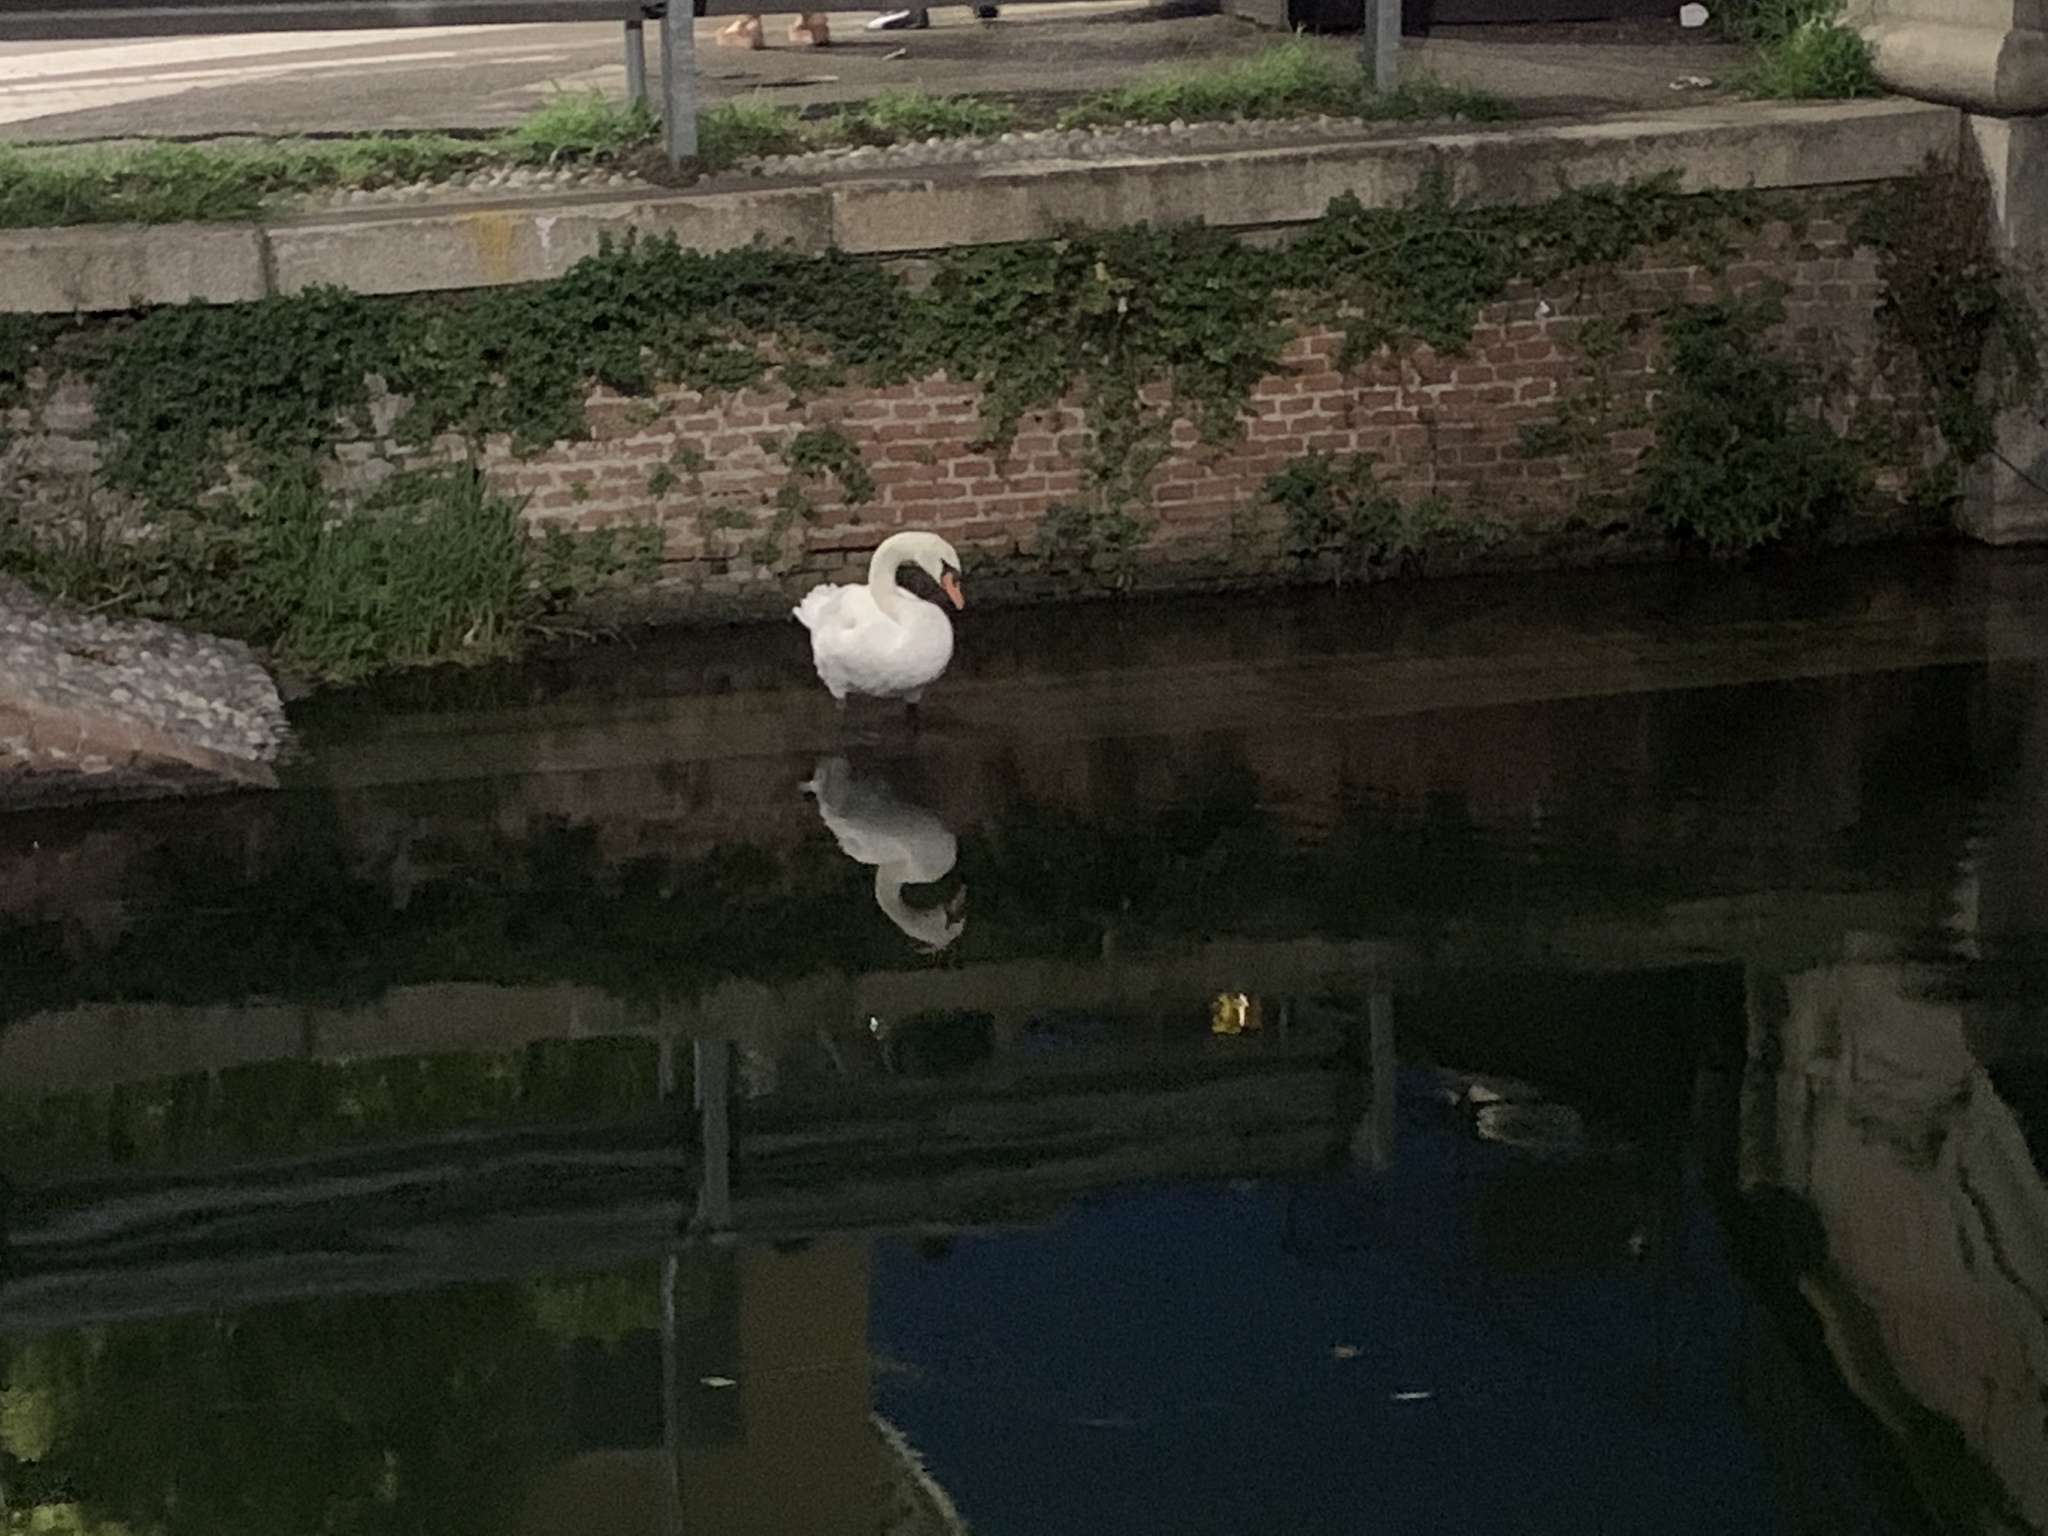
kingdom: Animalia
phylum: Chordata
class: Aves
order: Anseriformes
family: Anatidae
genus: Cygnus
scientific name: Cygnus olor
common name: Mute swan
